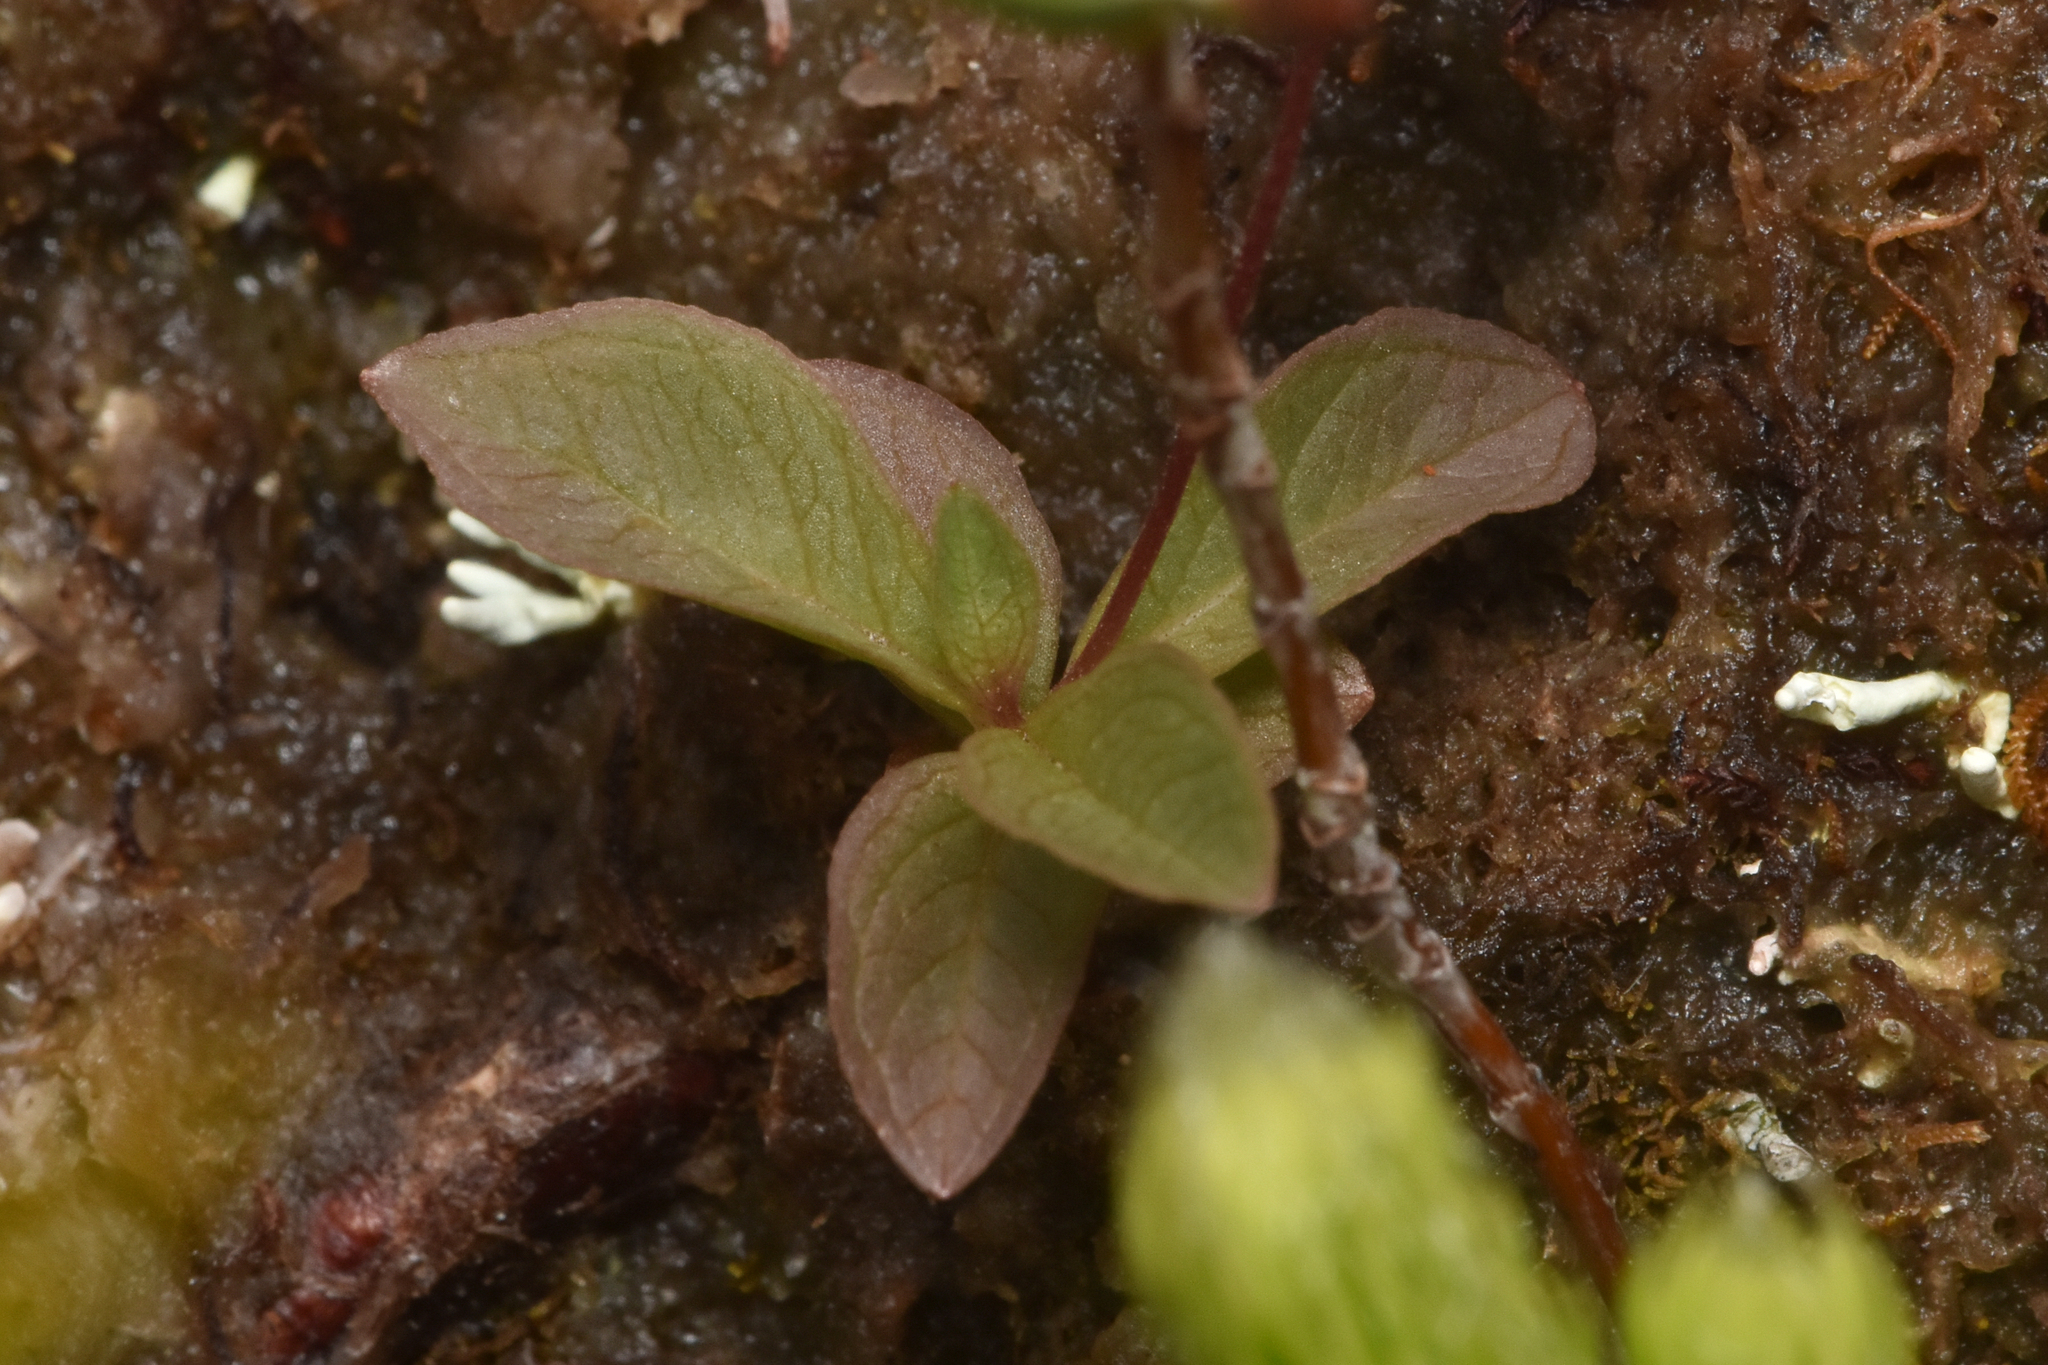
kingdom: Plantae
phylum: Tracheophyta
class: Magnoliopsida
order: Ericales
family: Primulaceae
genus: Lysimachia
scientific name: Lysimachia europaea
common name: Arctic starflower
